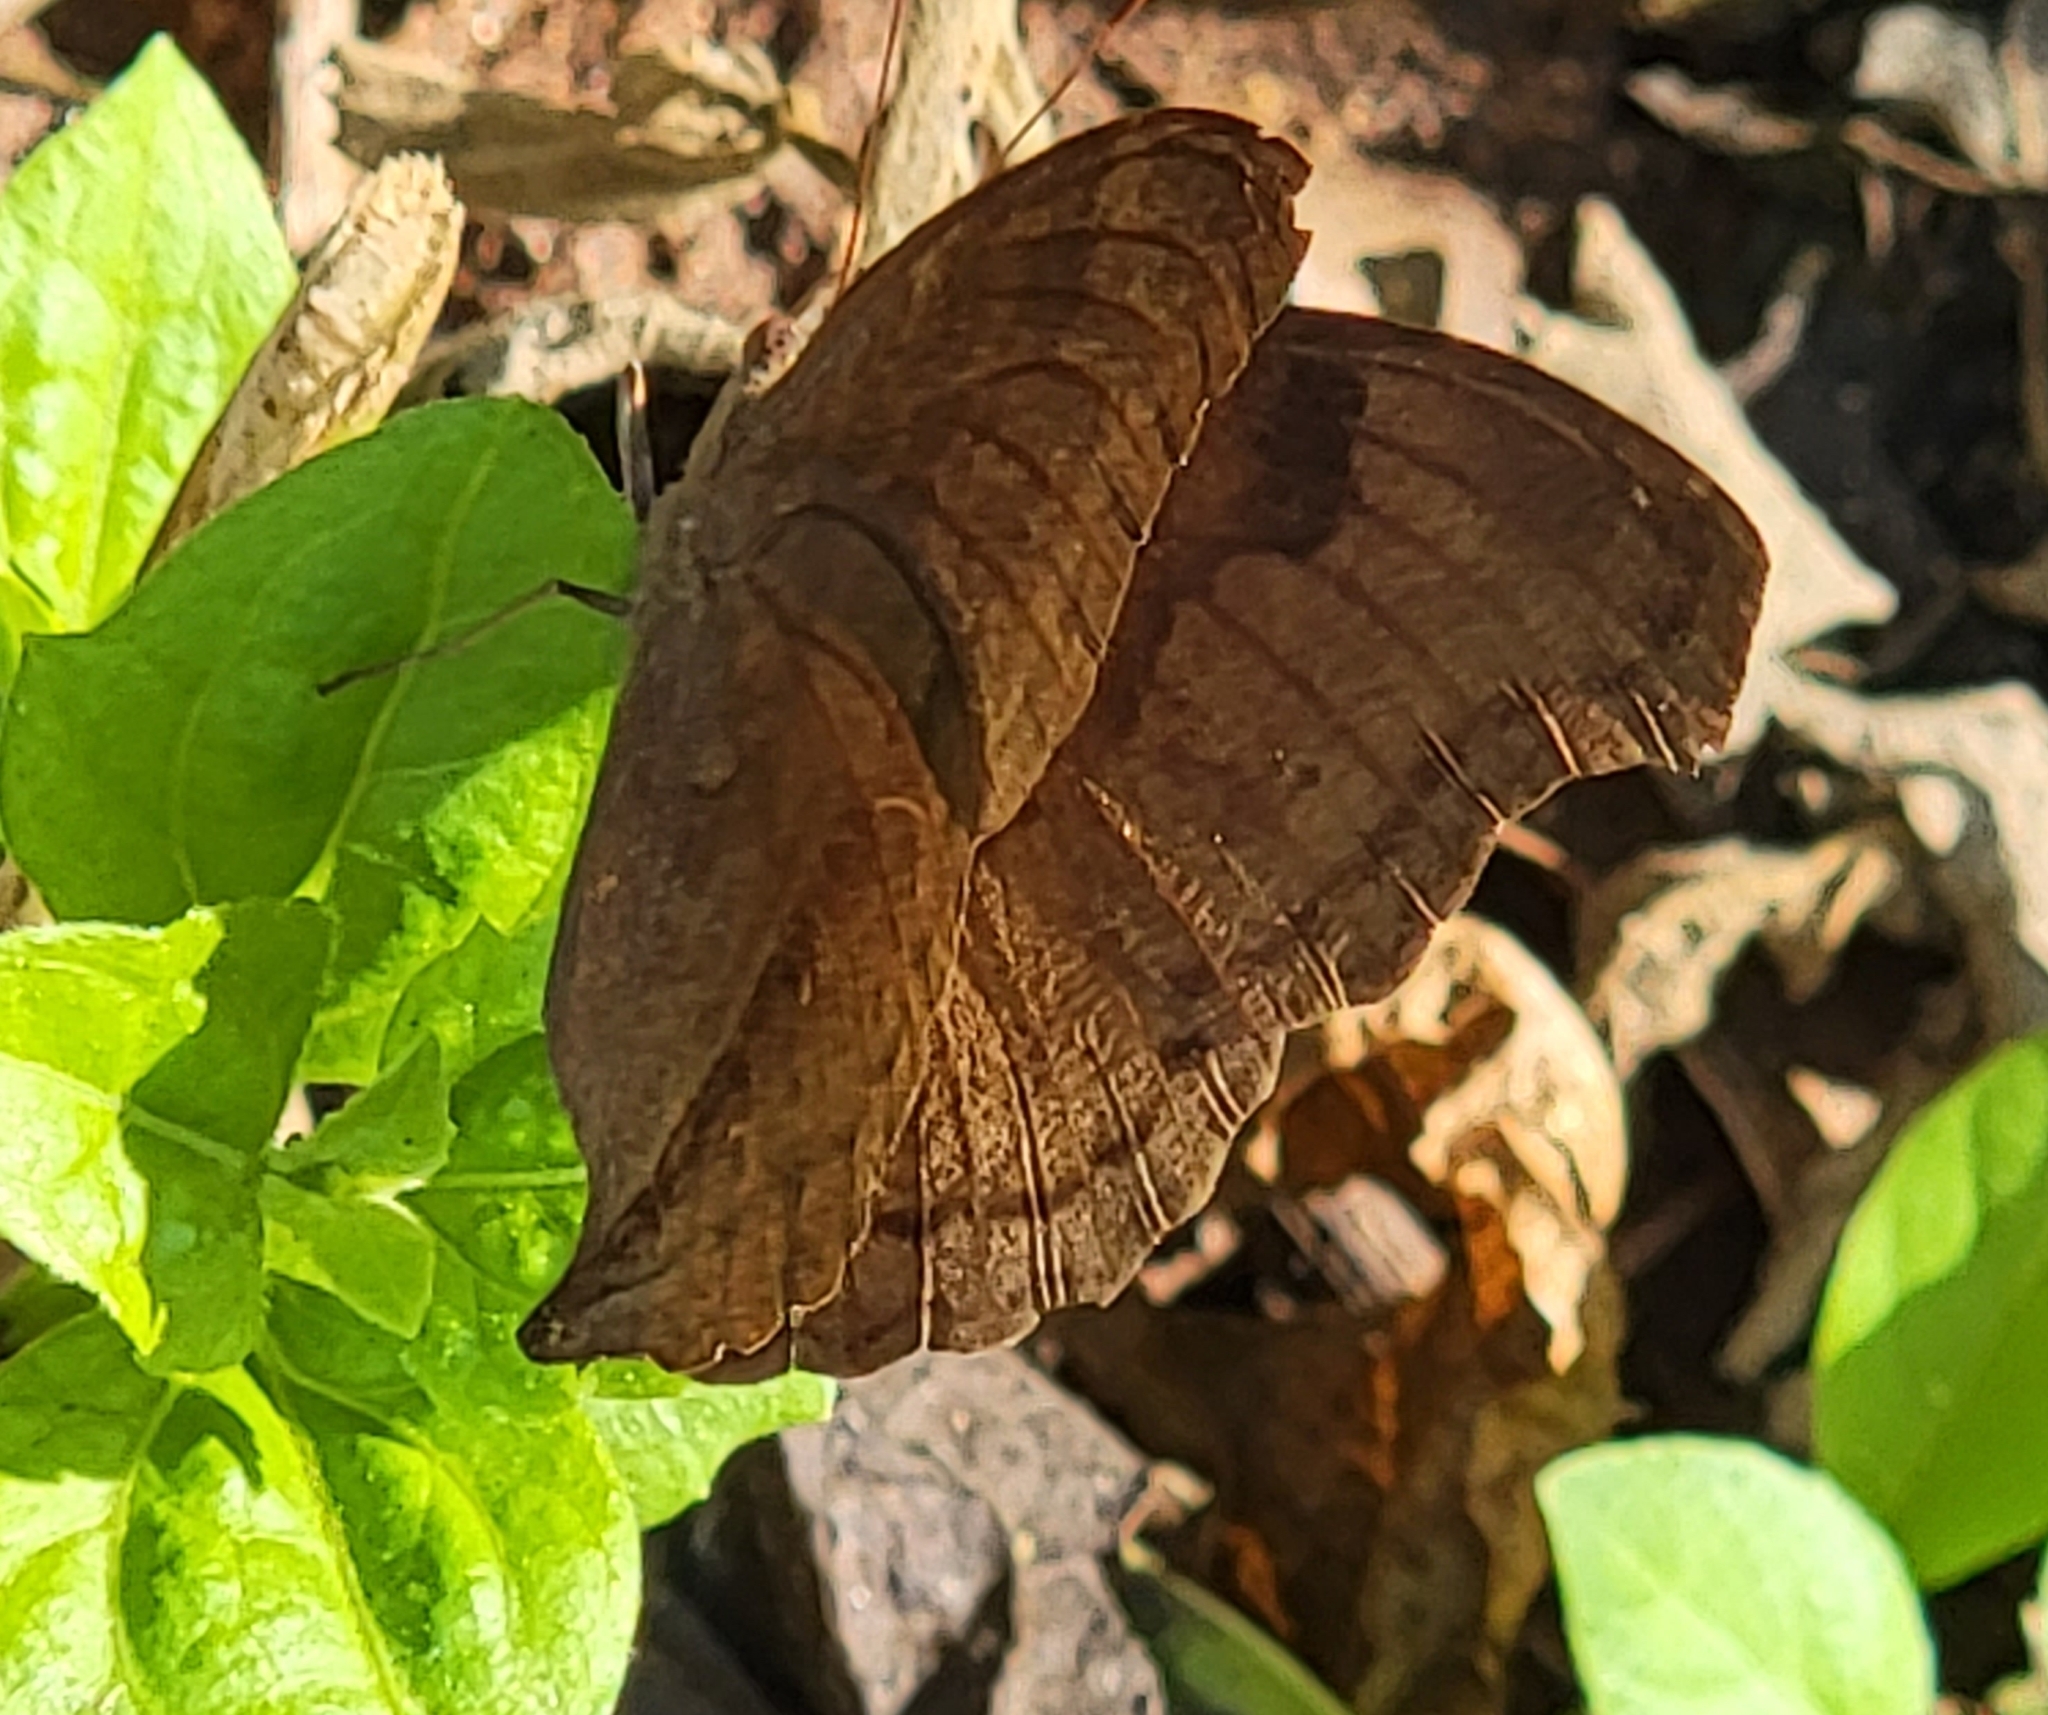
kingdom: Animalia
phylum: Arthropoda
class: Insecta
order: Lepidoptera
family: Nymphalidae
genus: Junonia
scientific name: Junonia iphita
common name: Chocolate pansy
